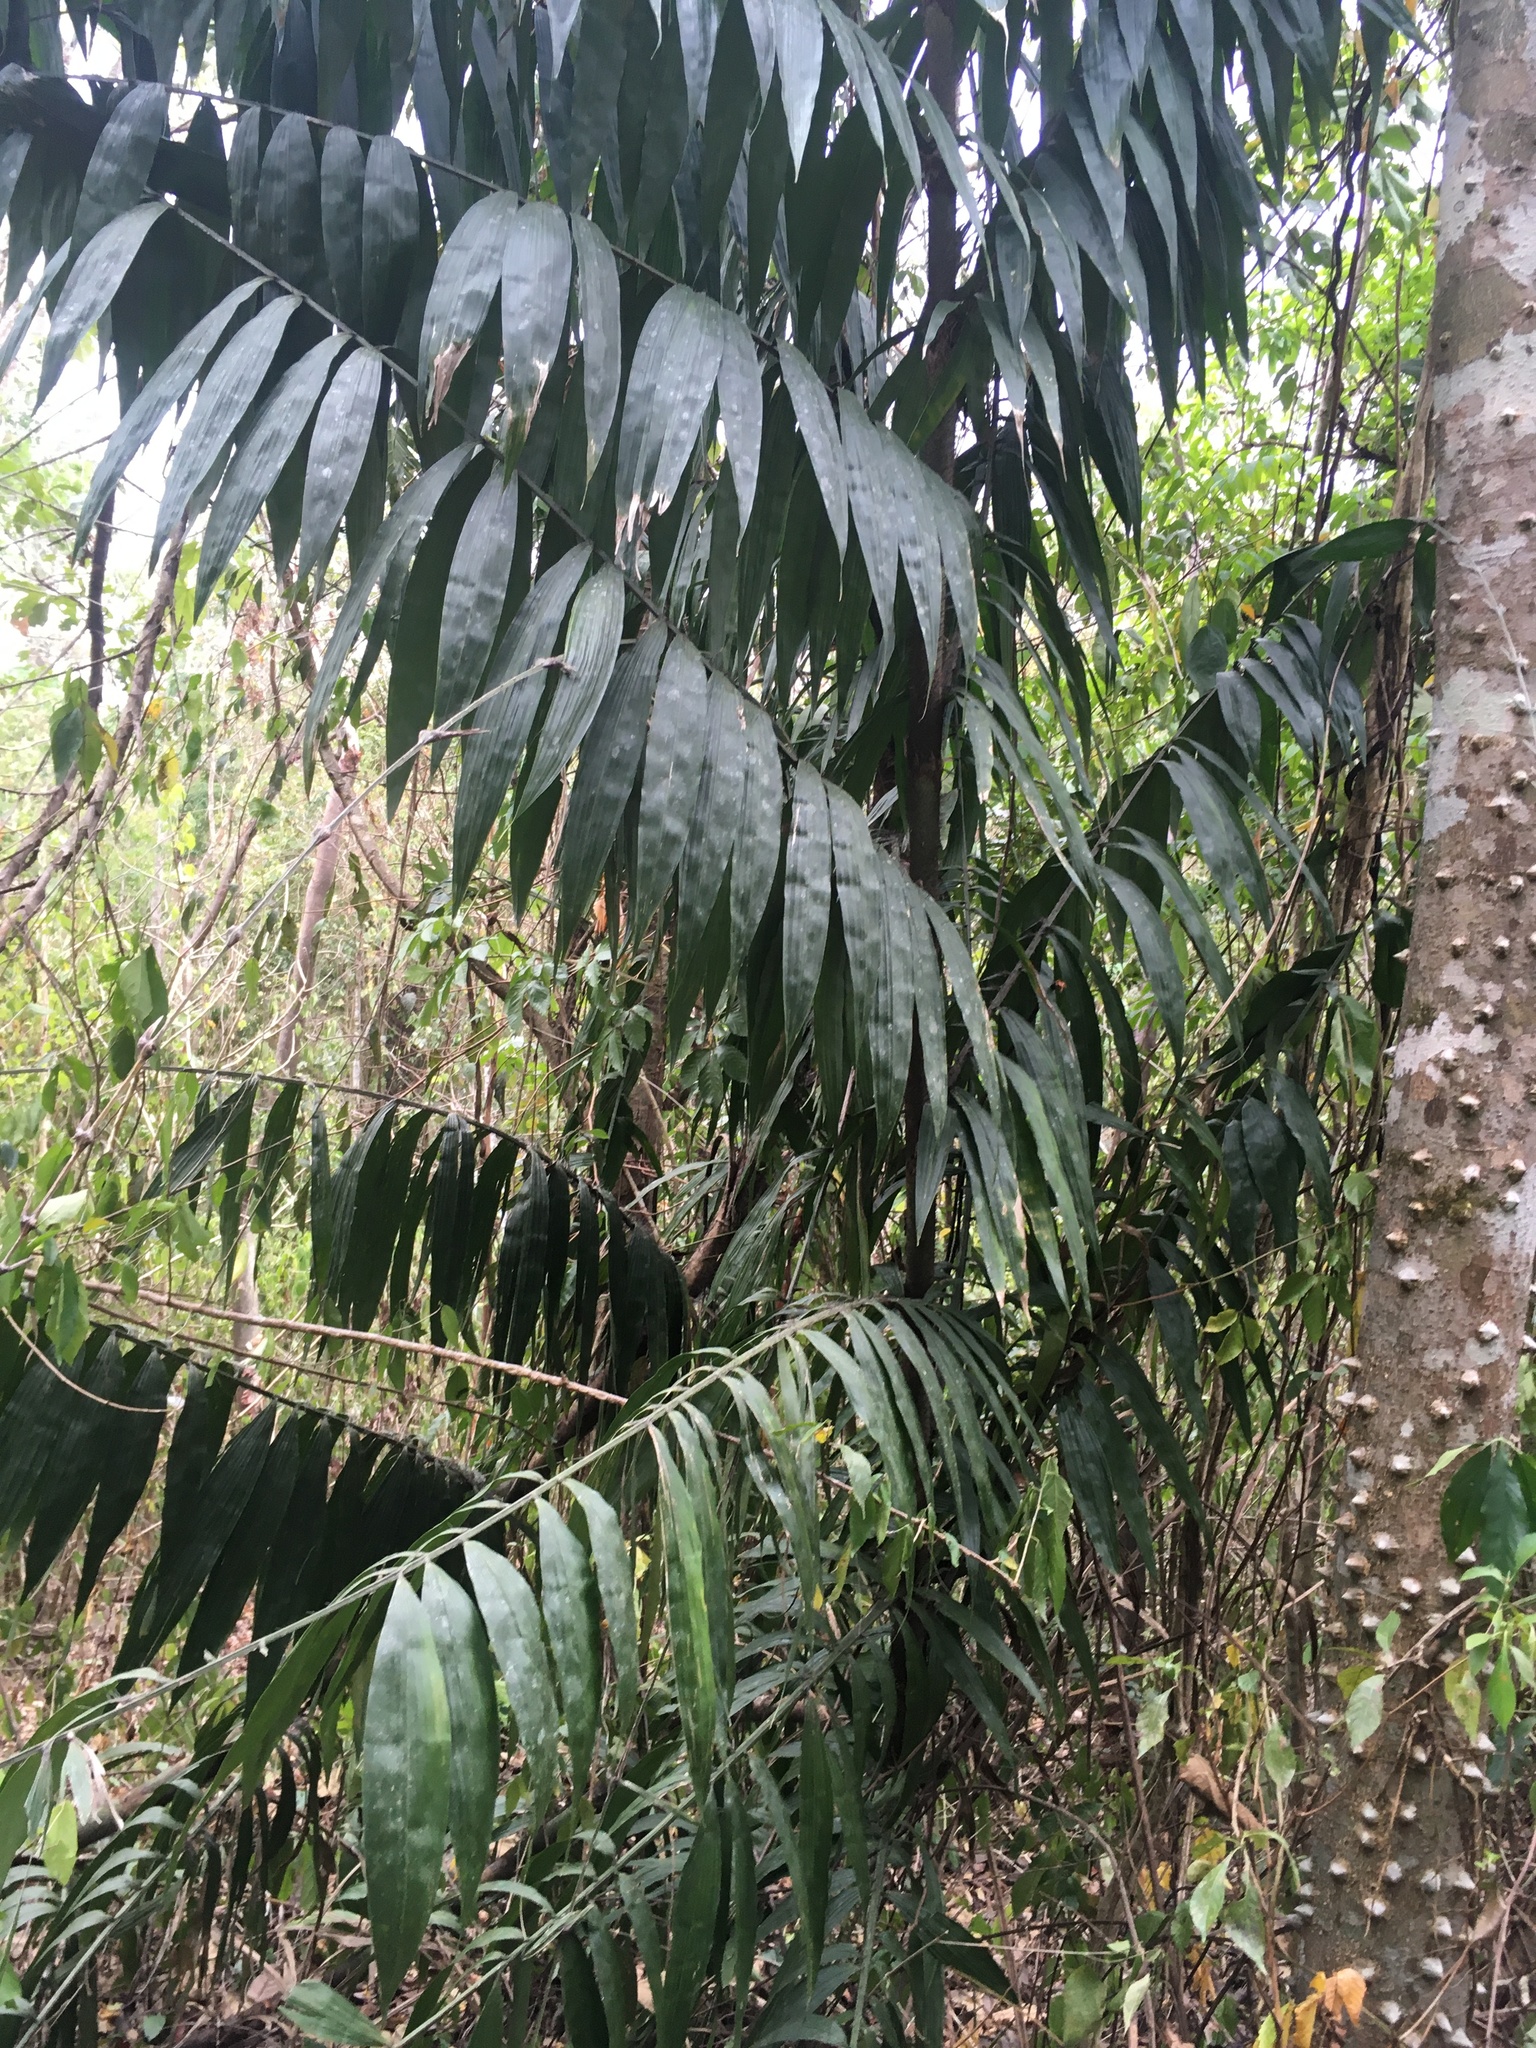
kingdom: Plantae
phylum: Tracheophyta
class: Liliopsida
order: Arecales
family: Arecaceae
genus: Desmoncus
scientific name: Desmoncus chinantlensis
